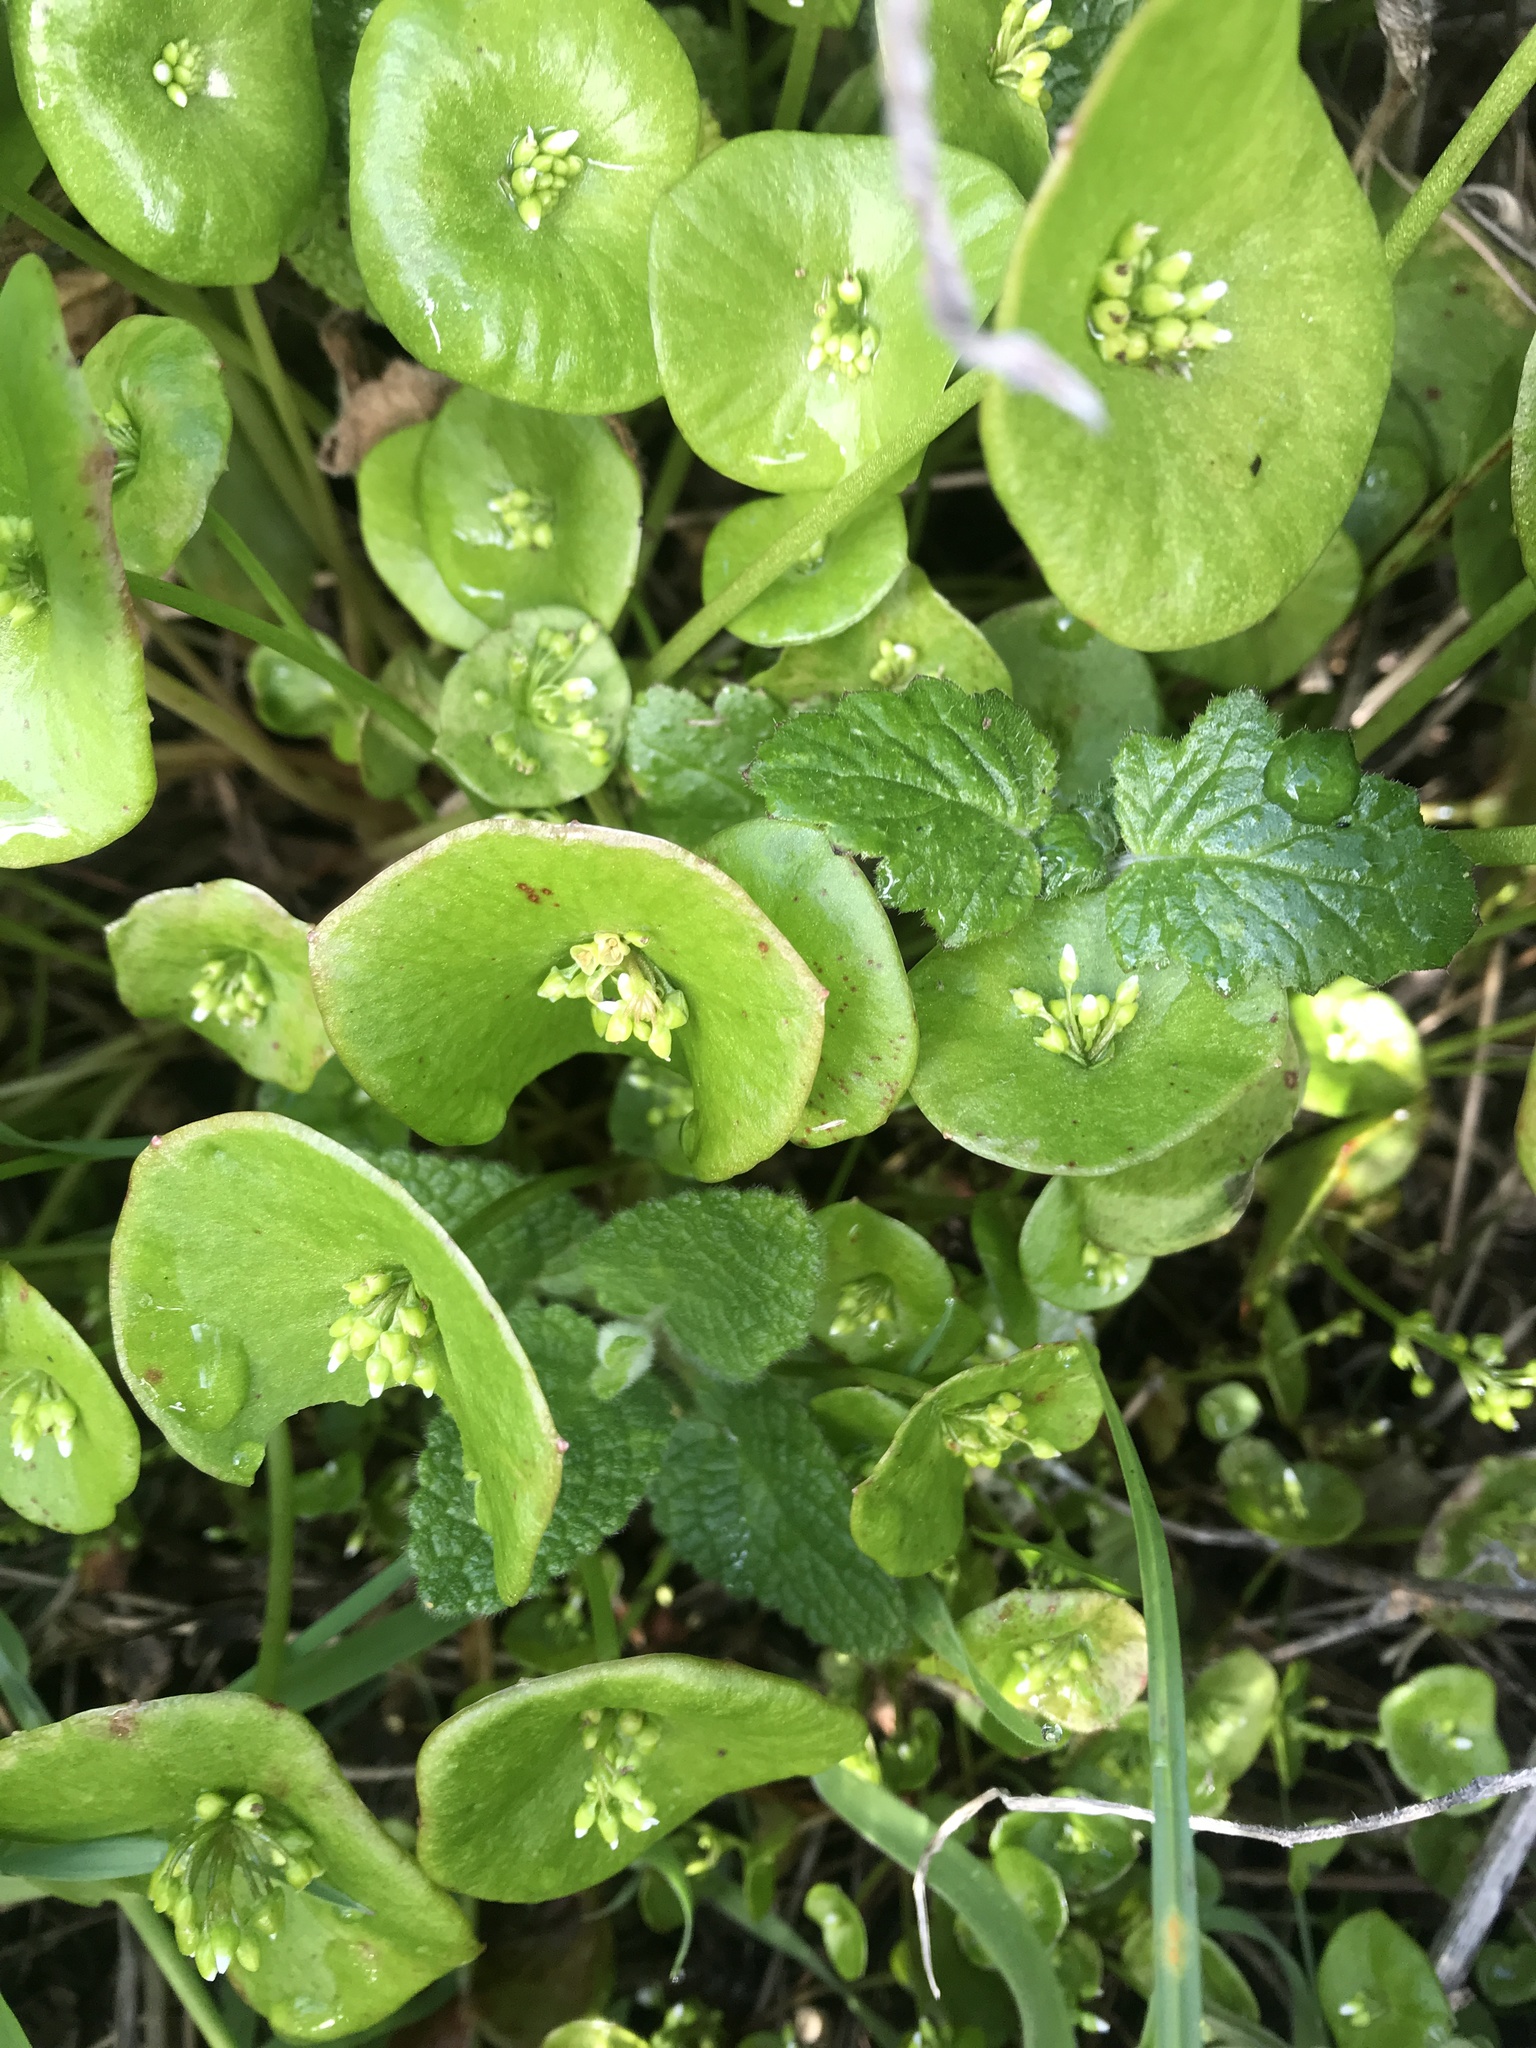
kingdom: Plantae
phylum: Tracheophyta
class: Magnoliopsida
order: Caryophyllales
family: Montiaceae
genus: Claytonia
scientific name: Claytonia perfoliata
